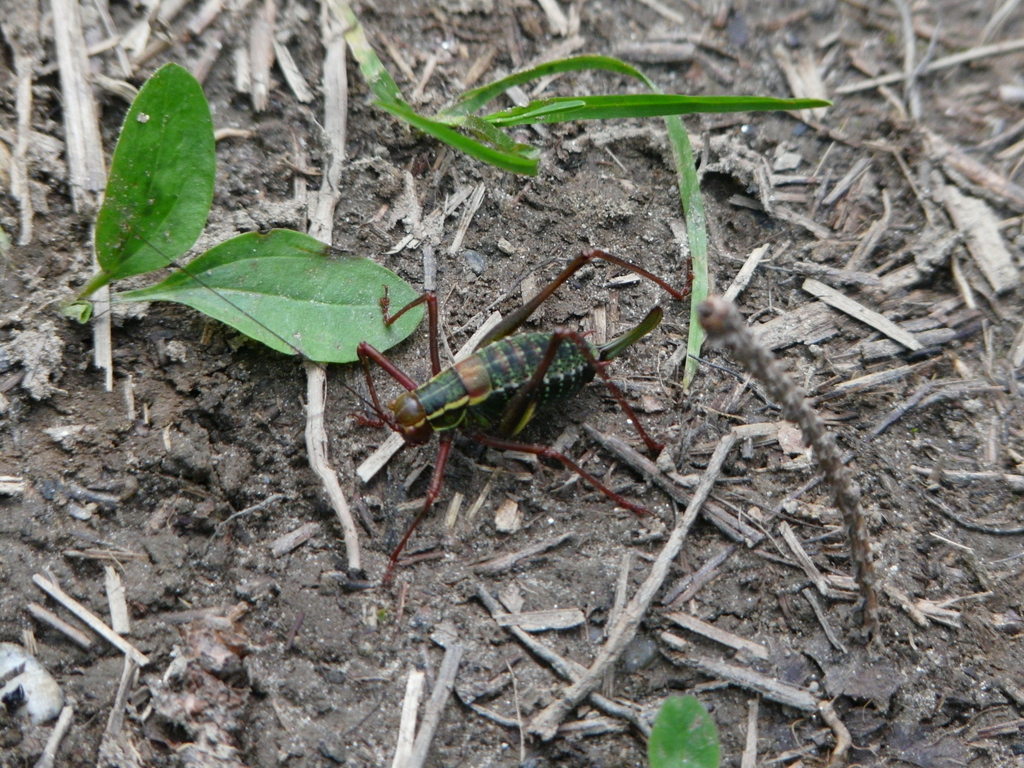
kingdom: Animalia
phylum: Arthropoda
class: Insecta
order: Orthoptera
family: Tettigoniidae
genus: Barbitistes
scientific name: Barbitistes serricauda
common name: Saw-tailed bush-cricket
